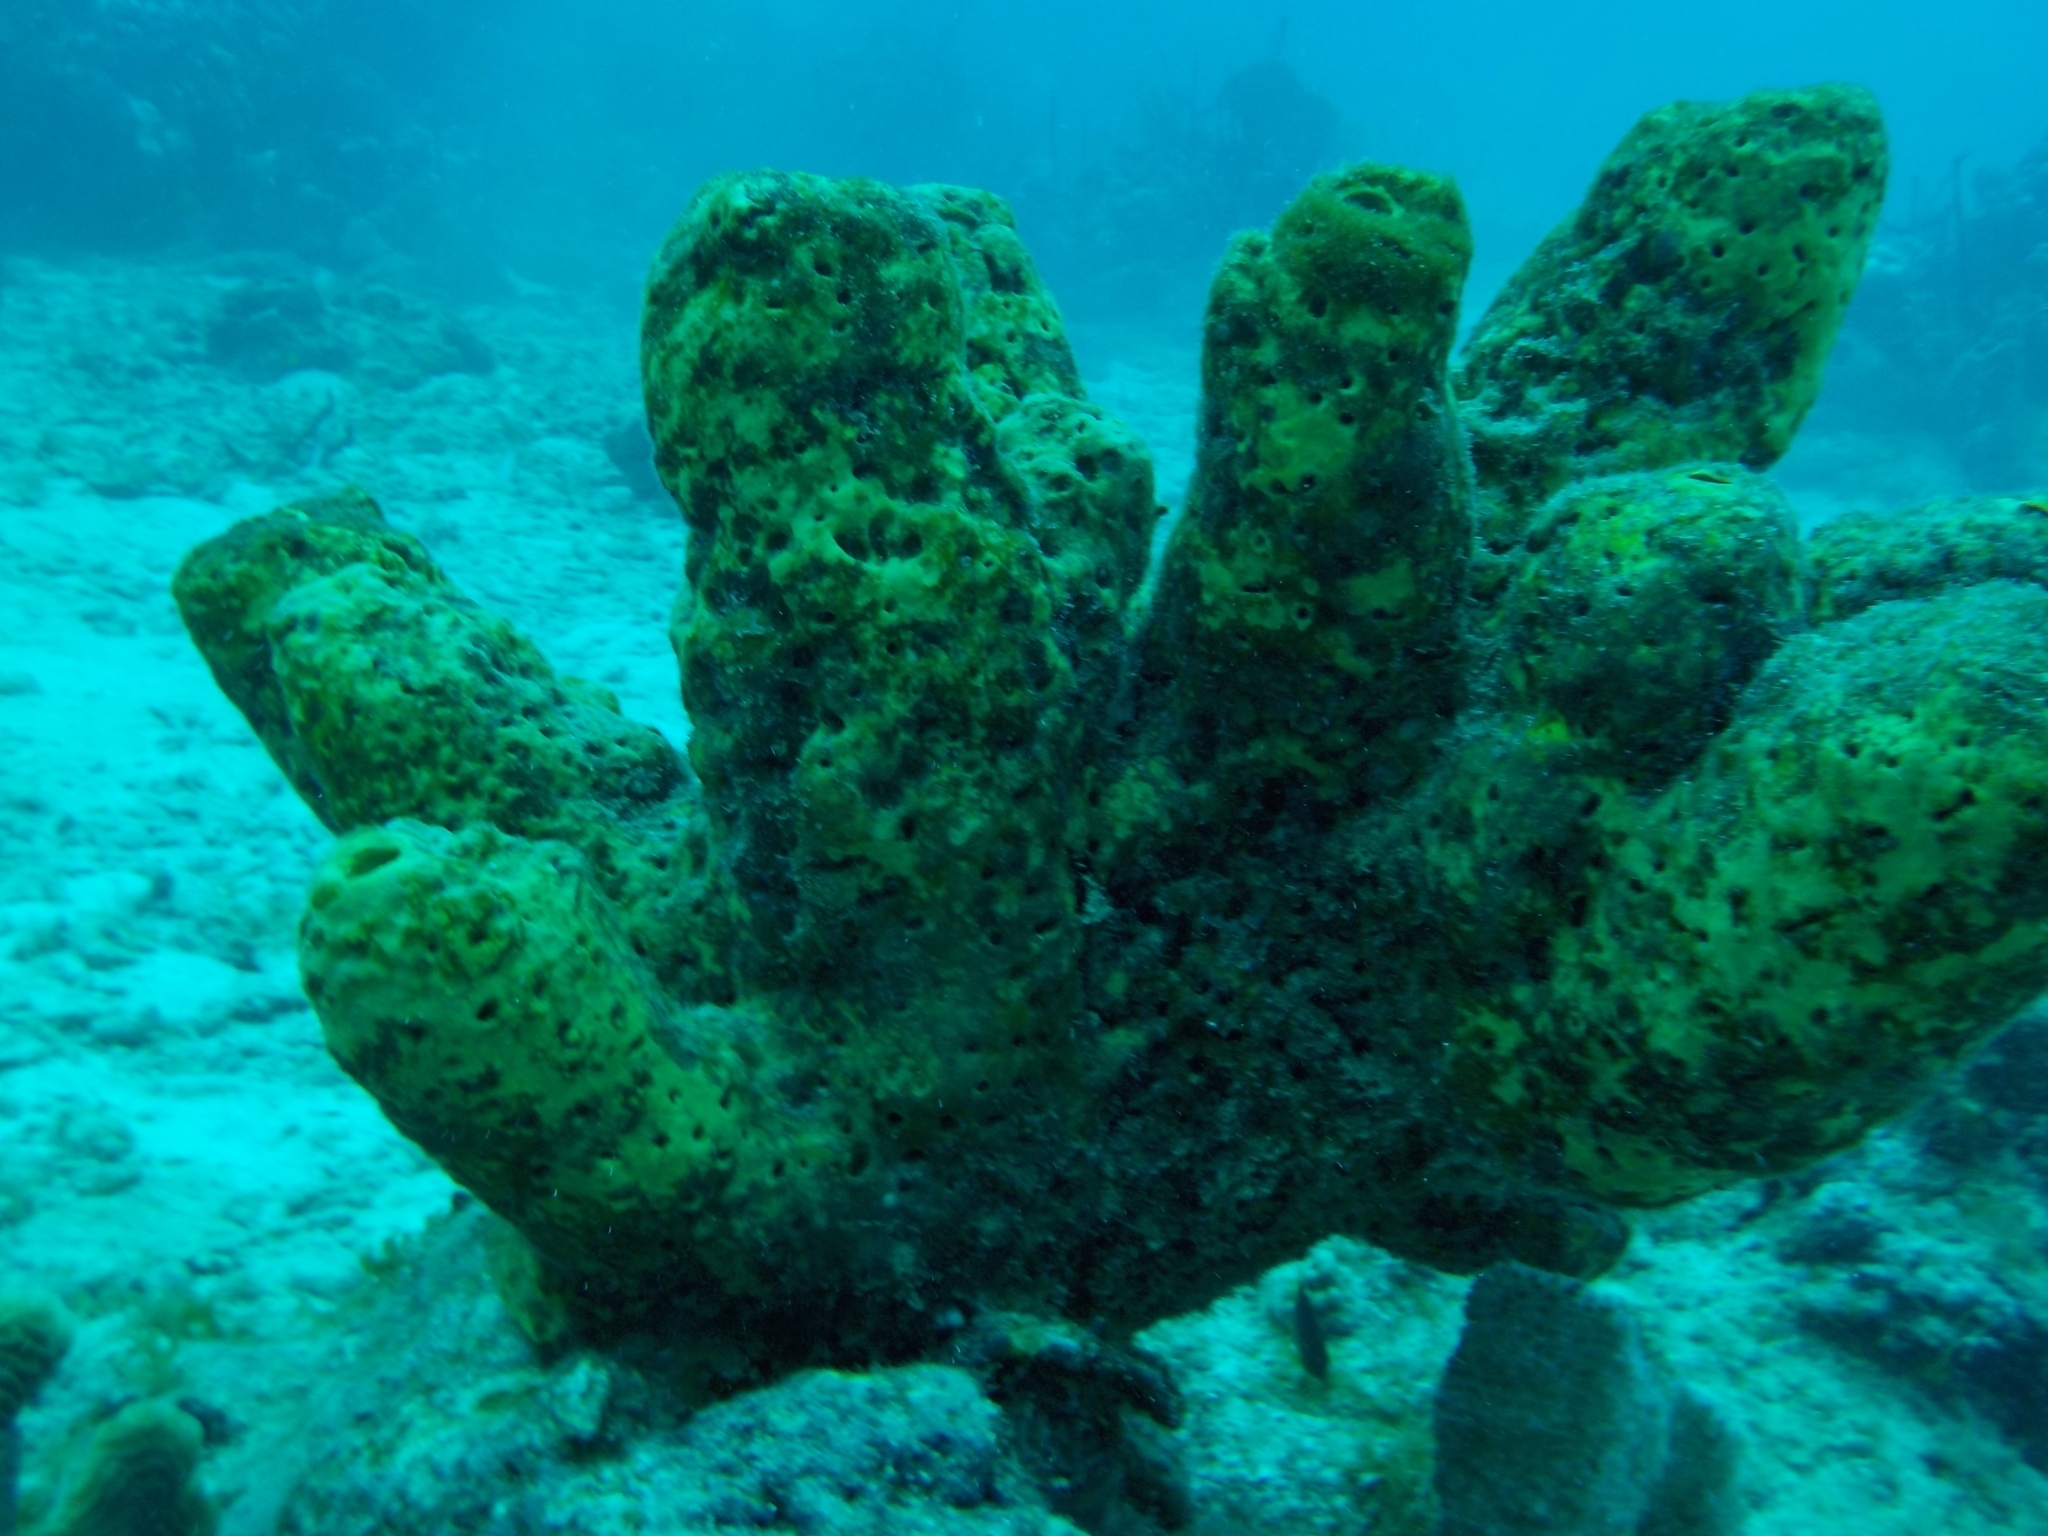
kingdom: Animalia
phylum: Porifera
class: Demospongiae
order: Verongiida
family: Aplysinidae
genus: Aplysina
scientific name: Aplysina lacunosa
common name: Convoluted barrel sponge
